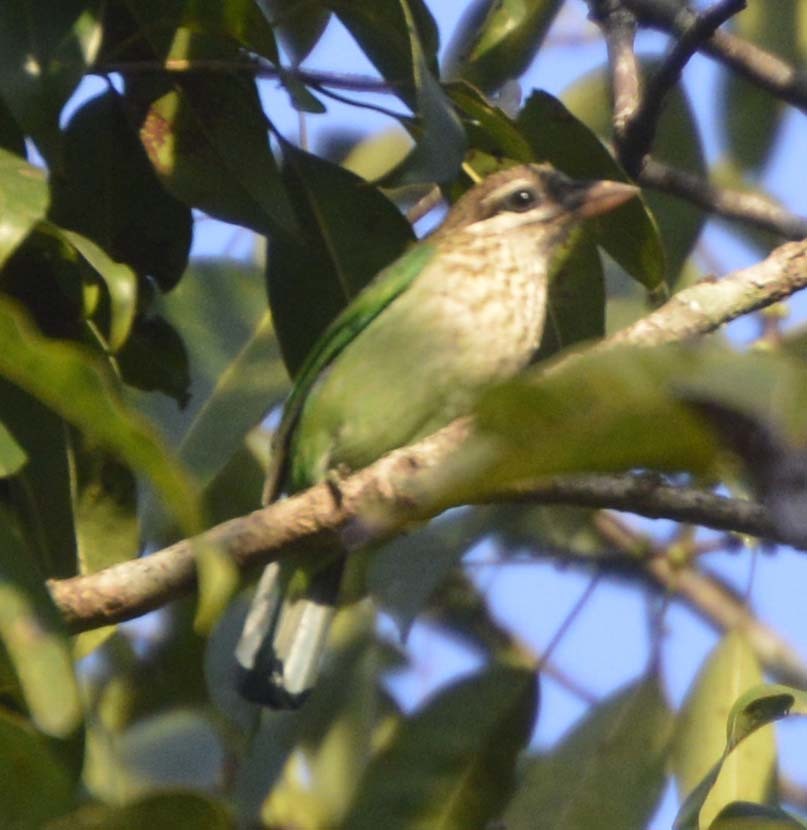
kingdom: Animalia
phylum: Chordata
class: Aves
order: Piciformes
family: Megalaimidae
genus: Psilopogon
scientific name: Psilopogon viridis
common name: White-cheeked barbet
